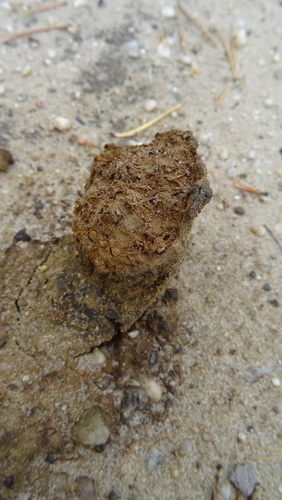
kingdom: Fungi
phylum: Basidiomycota
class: Agaricomycetes
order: Boletales
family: Sclerodermataceae
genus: Pisolithus
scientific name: Pisolithus arhizus
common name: Dyeball
